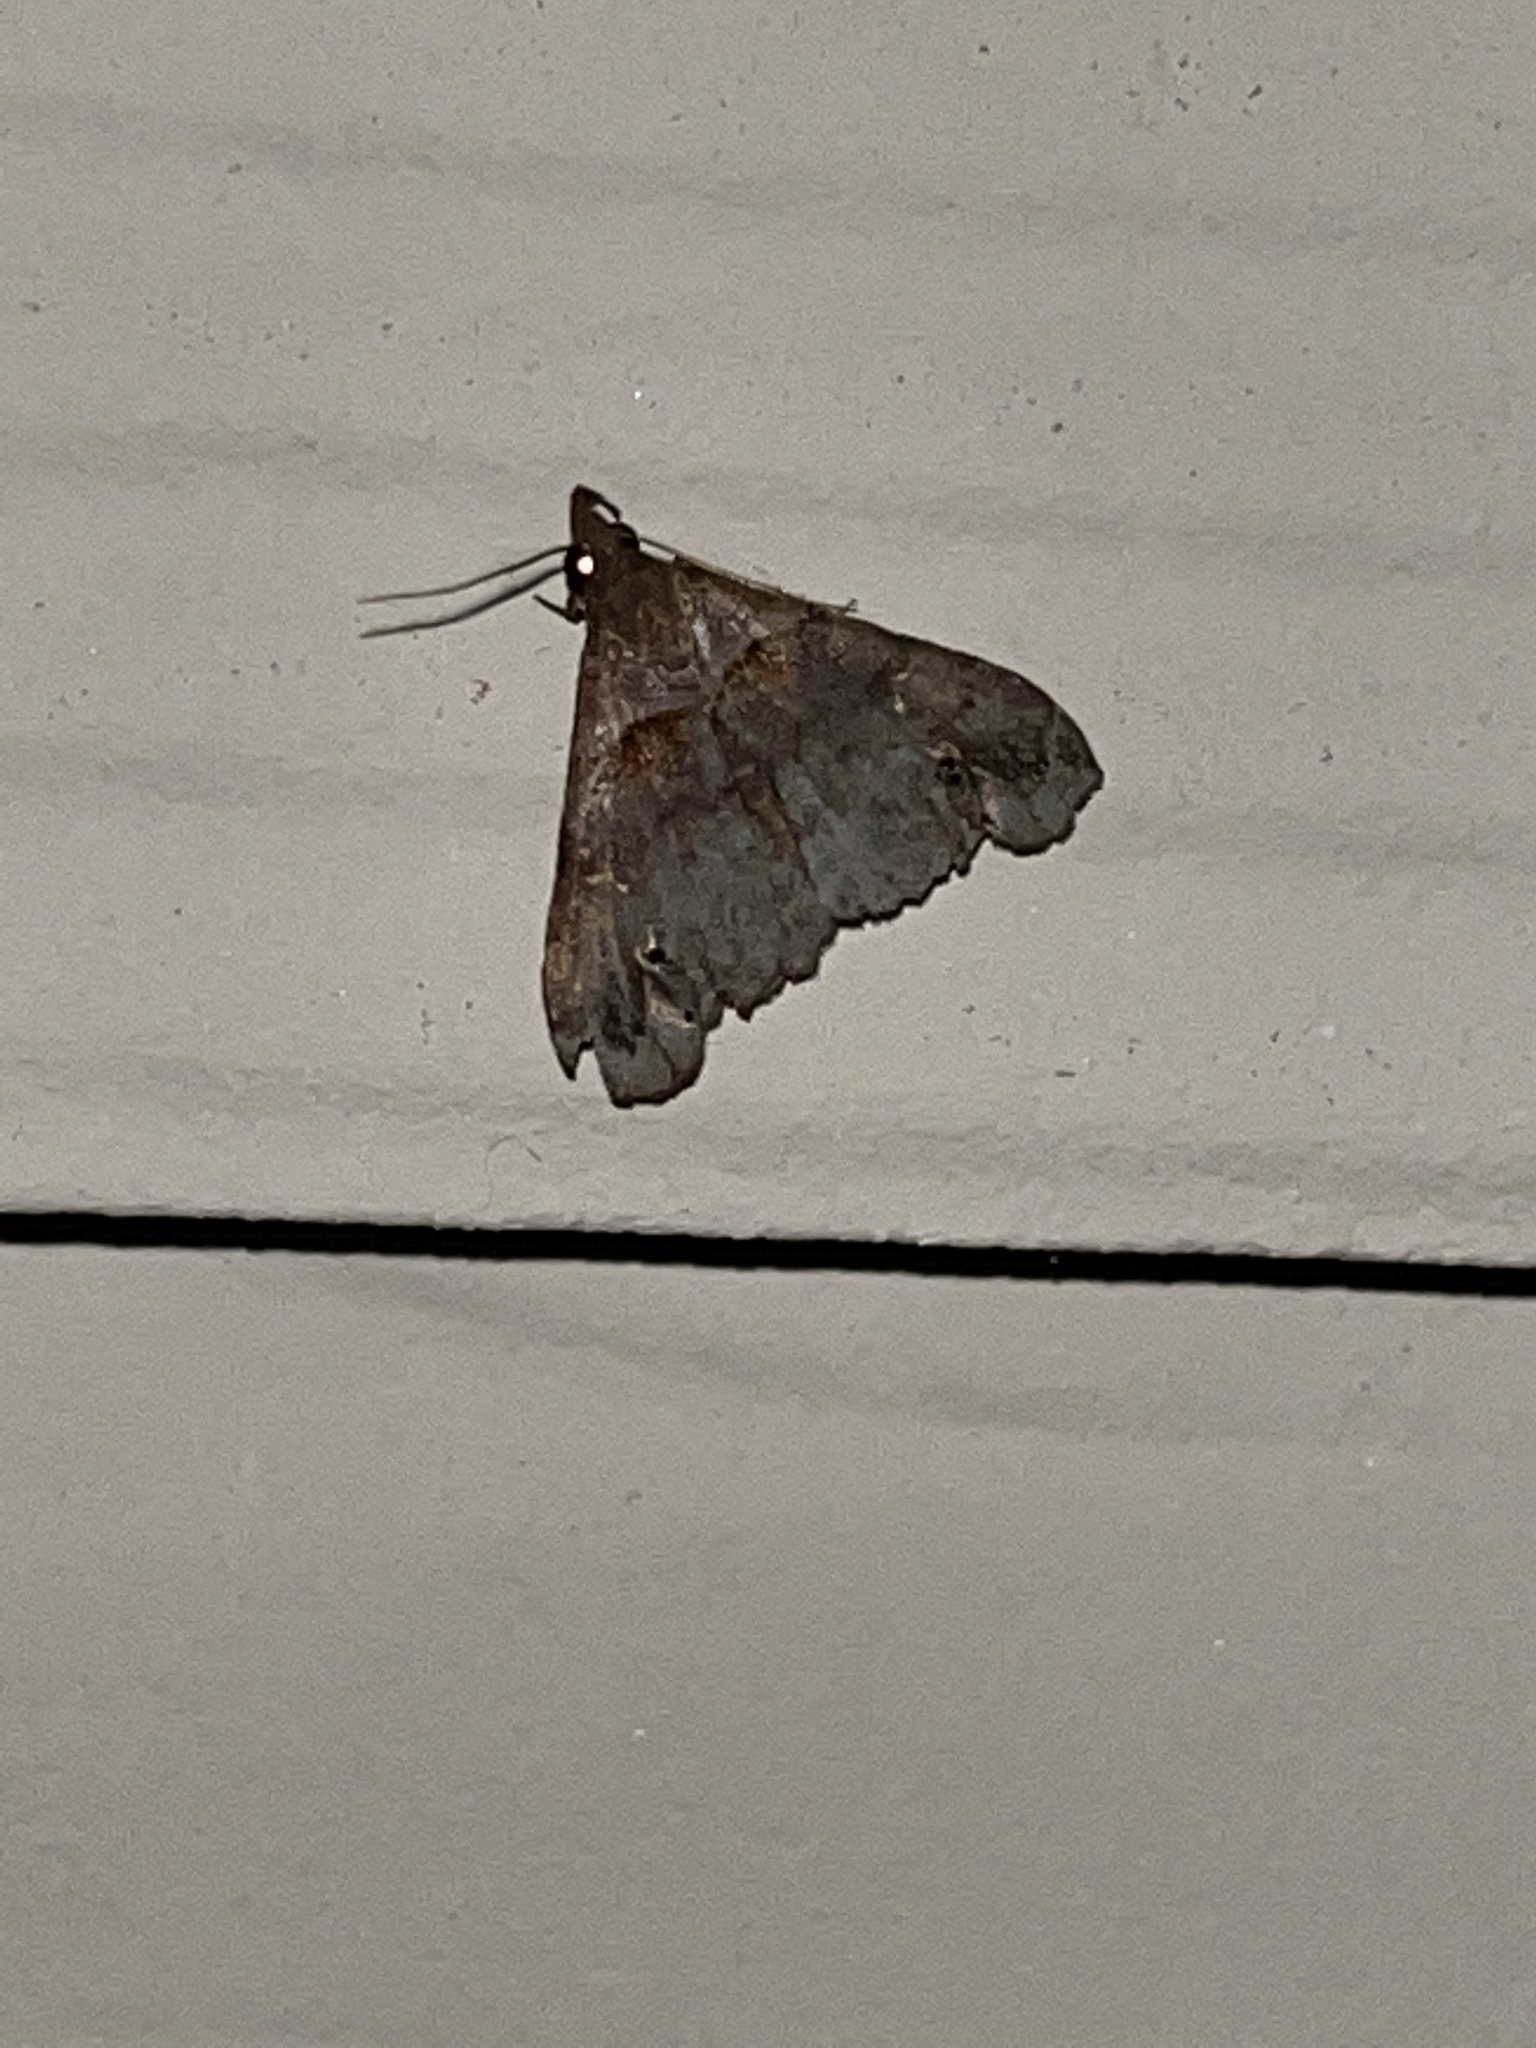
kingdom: Animalia
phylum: Arthropoda
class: Insecta
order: Lepidoptera
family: Erebidae
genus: Lascoria
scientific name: Lascoria ambigualis
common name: Ambiguous moth
